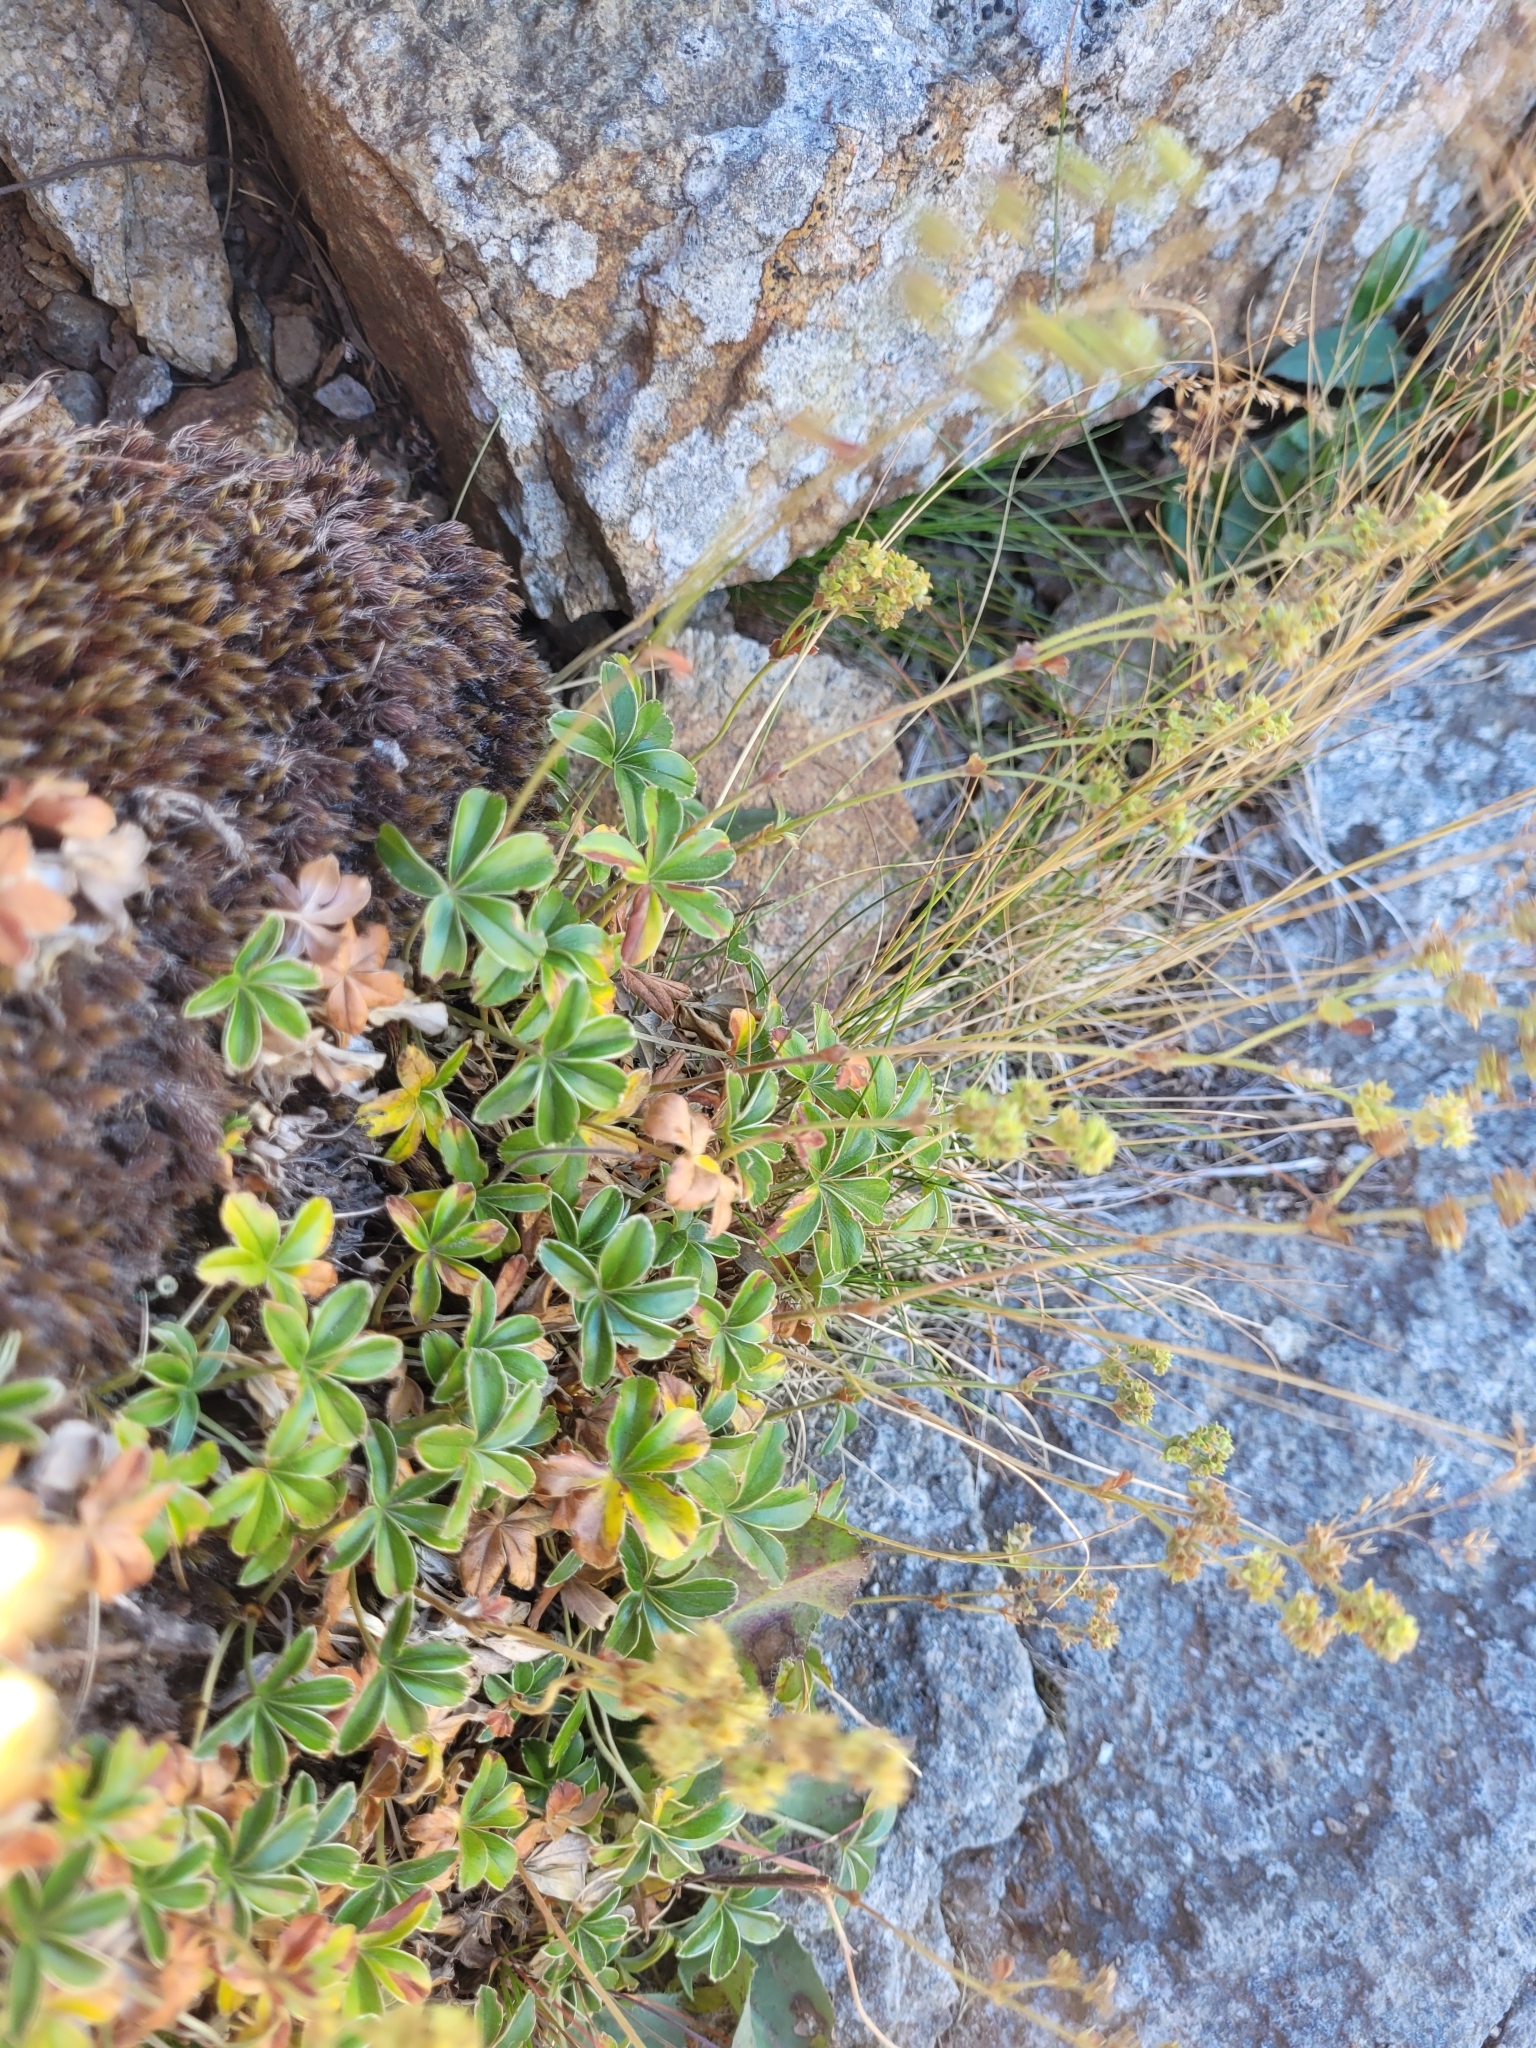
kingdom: Plantae
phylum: Tracheophyta
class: Magnoliopsida
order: Rosales
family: Rosaceae
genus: Alchemilla
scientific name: Alchemilla saxatilis
